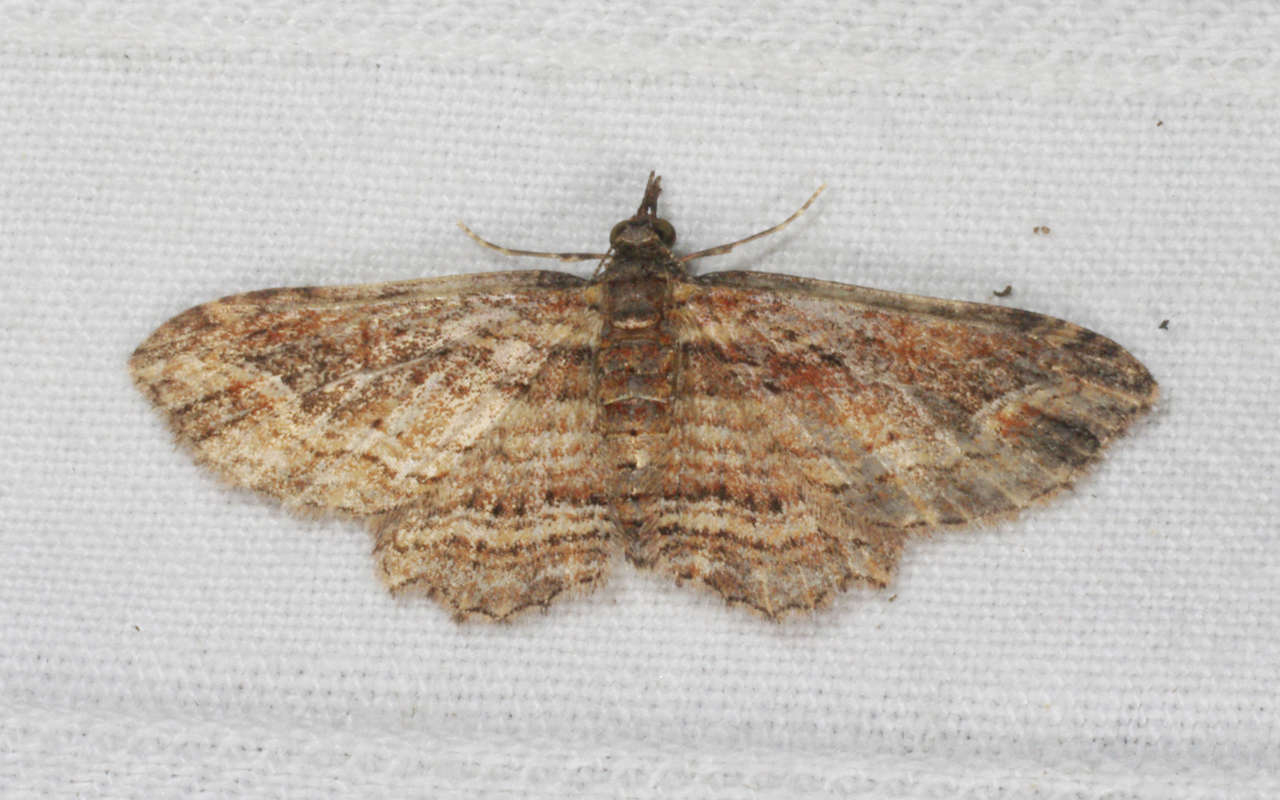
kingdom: Animalia
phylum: Arthropoda
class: Insecta
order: Lepidoptera
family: Geometridae
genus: Chloroclystis
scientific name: Chloroclystis filata
